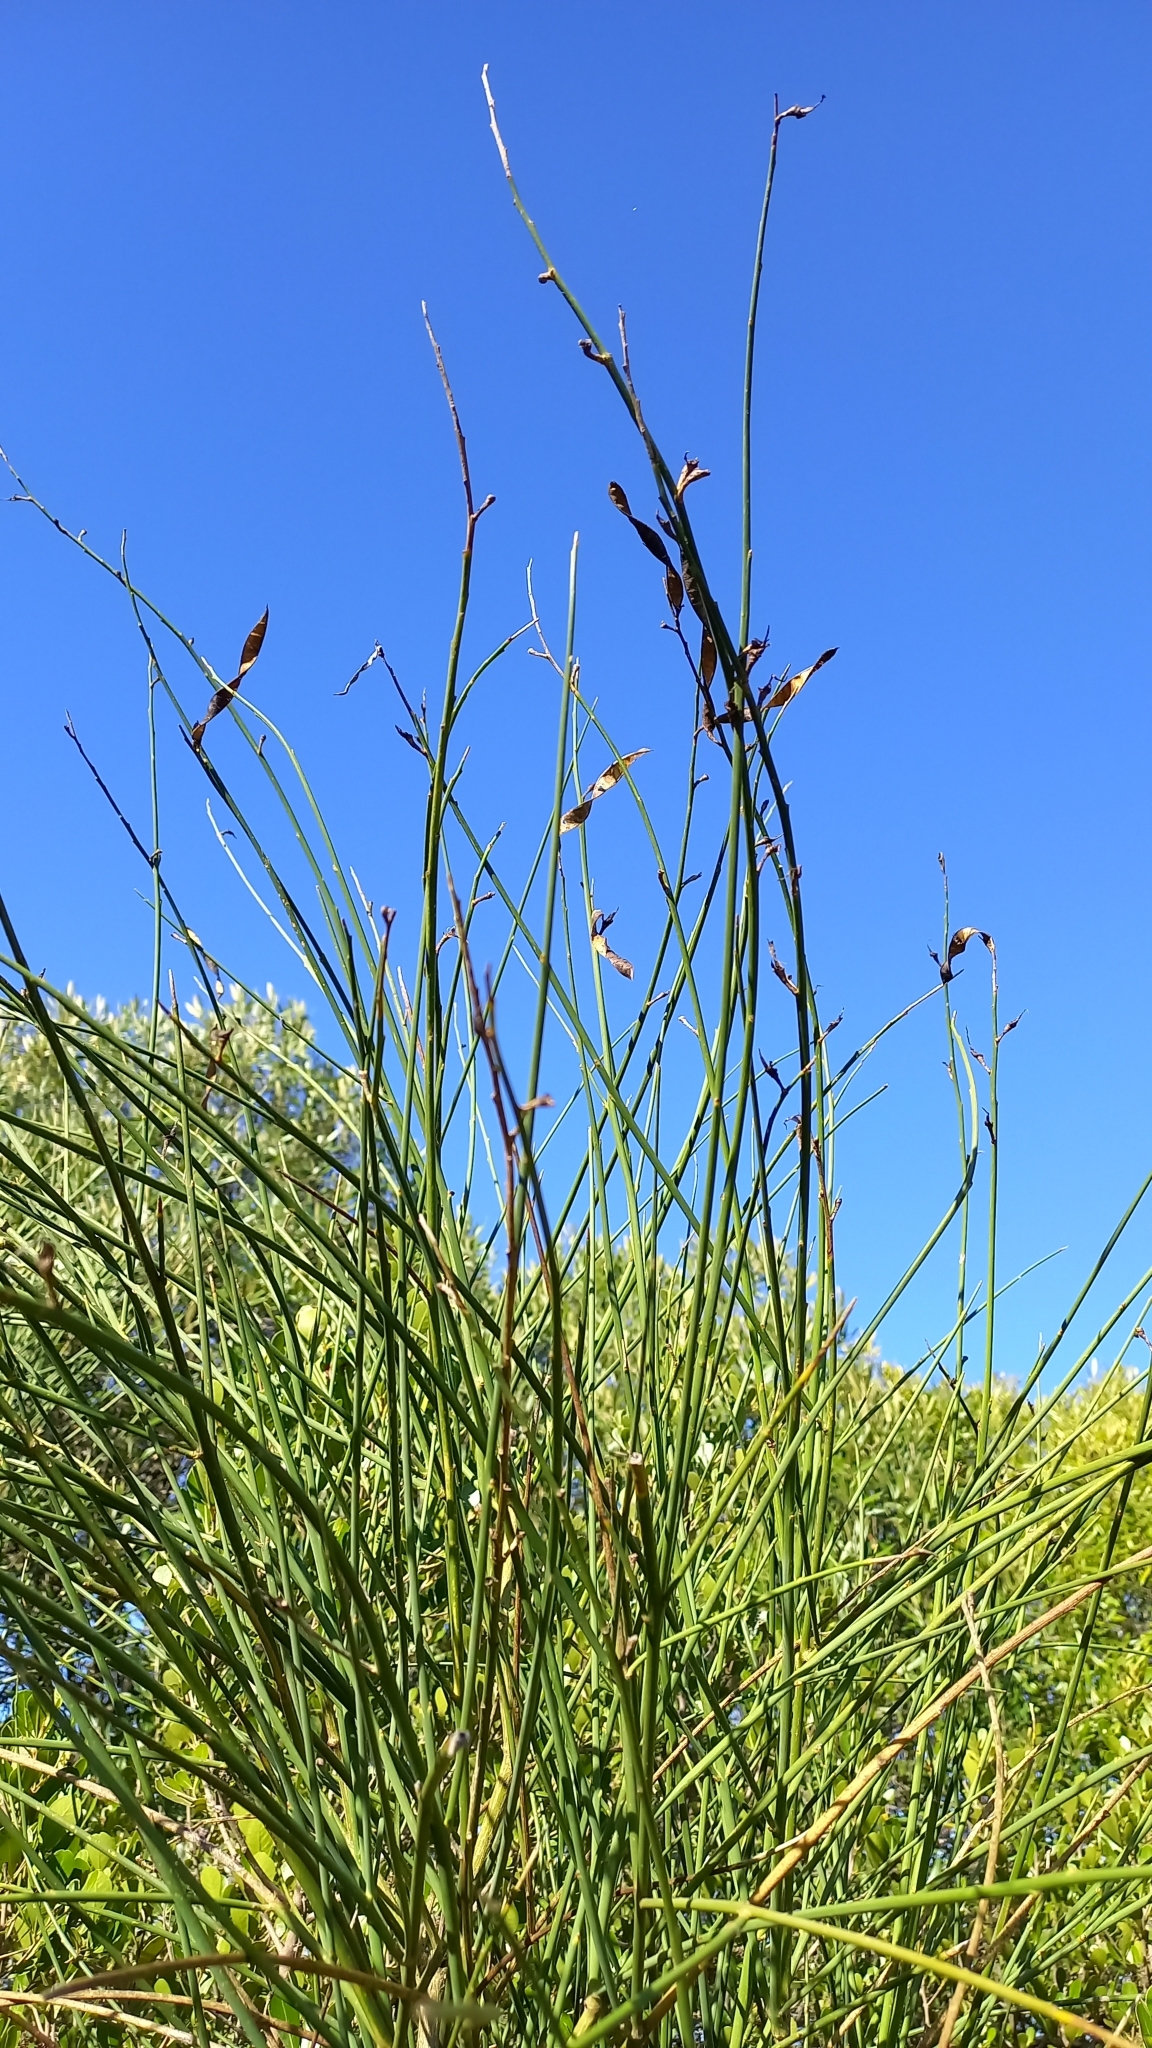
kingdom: Plantae
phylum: Tracheophyta
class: Magnoliopsida
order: Fabales
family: Fabaceae
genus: Spartium
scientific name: Spartium junceum
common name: Spanish broom
